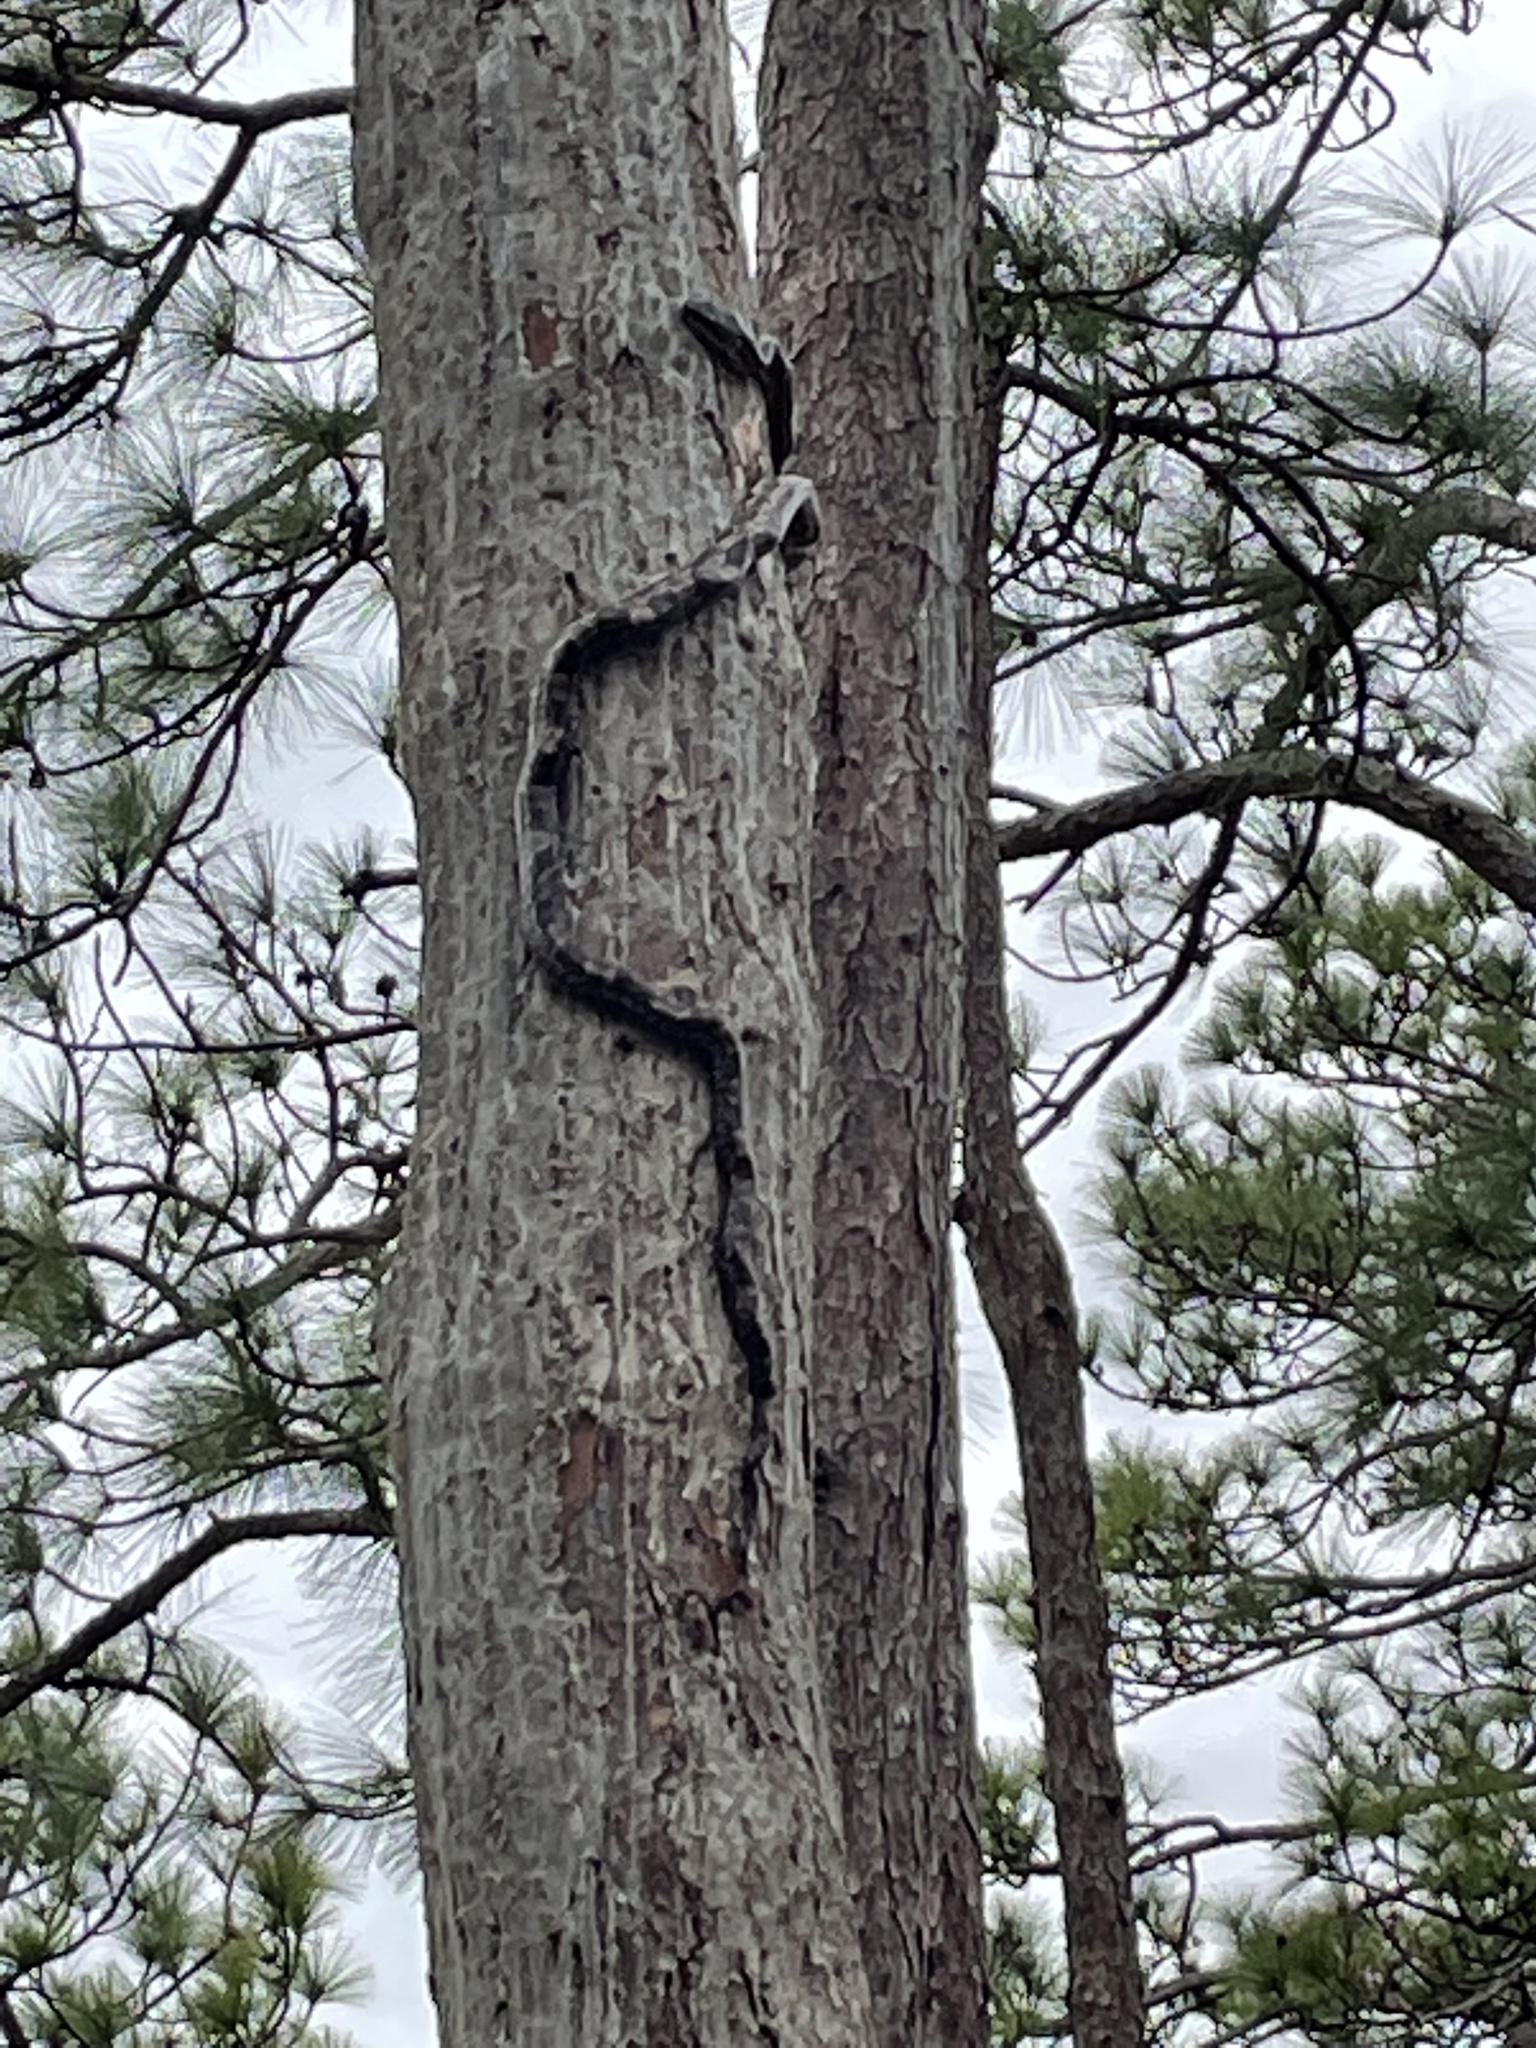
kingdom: Animalia
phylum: Chordata
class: Squamata
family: Colubridae
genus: Pantherophis
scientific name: Pantherophis spiloides
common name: Gray rat snake
